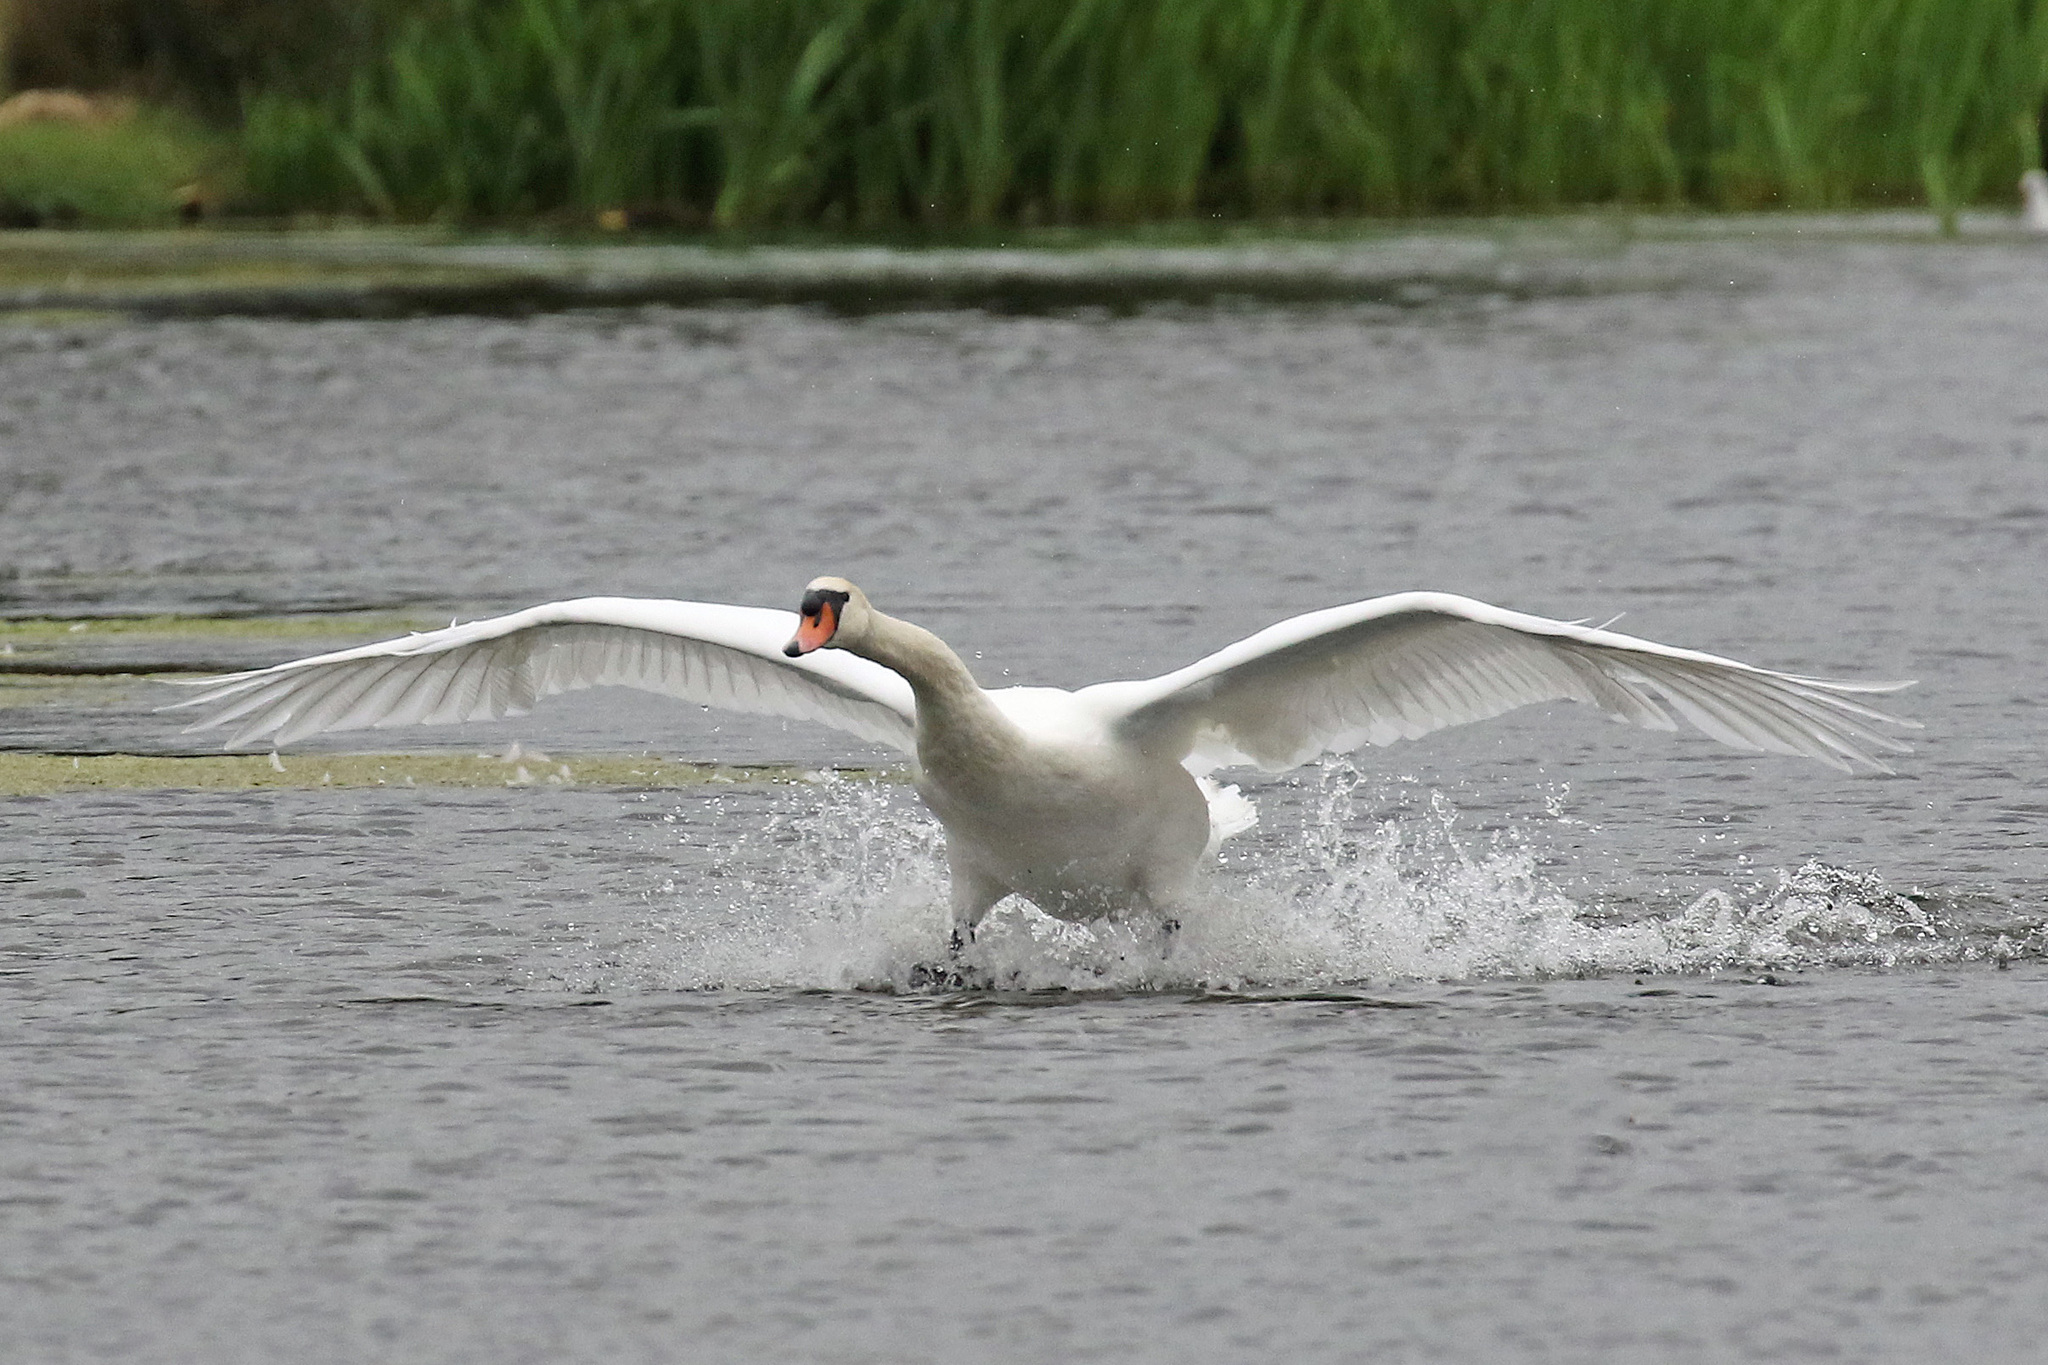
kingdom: Animalia
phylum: Chordata
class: Aves
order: Anseriformes
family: Anatidae
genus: Cygnus
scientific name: Cygnus olor
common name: Mute swan
